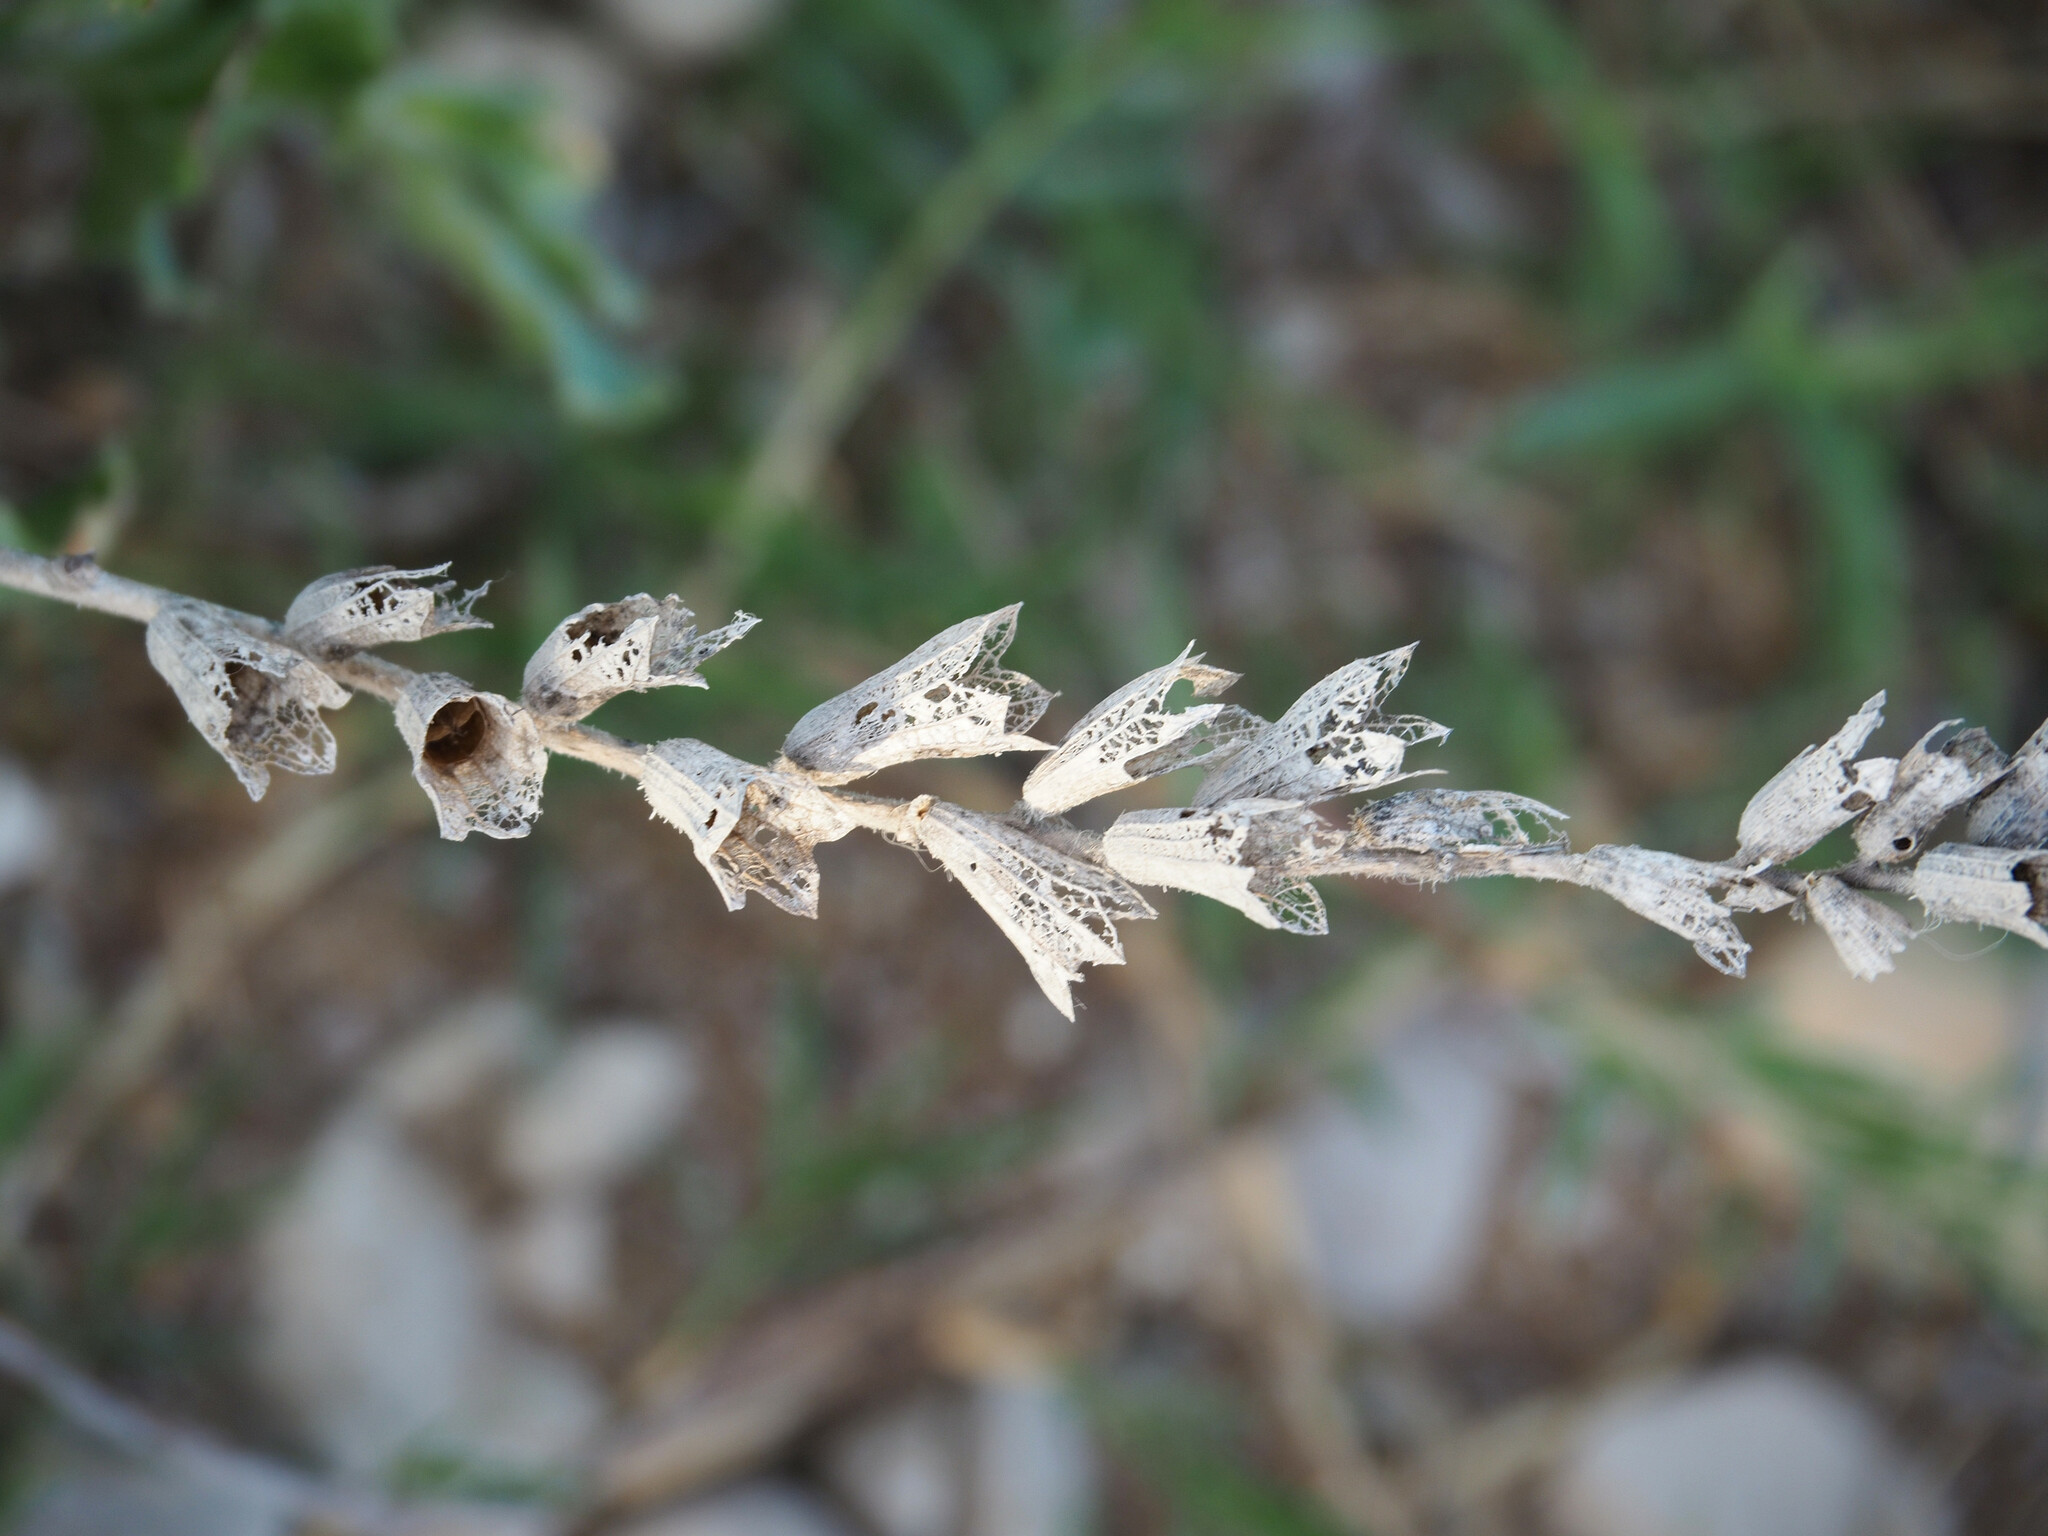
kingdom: Plantae
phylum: Tracheophyta
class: Magnoliopsida
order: Solanales
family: Solanaceae
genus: Hyoscyamus
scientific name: Hyoscyamus albus
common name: White henbane
